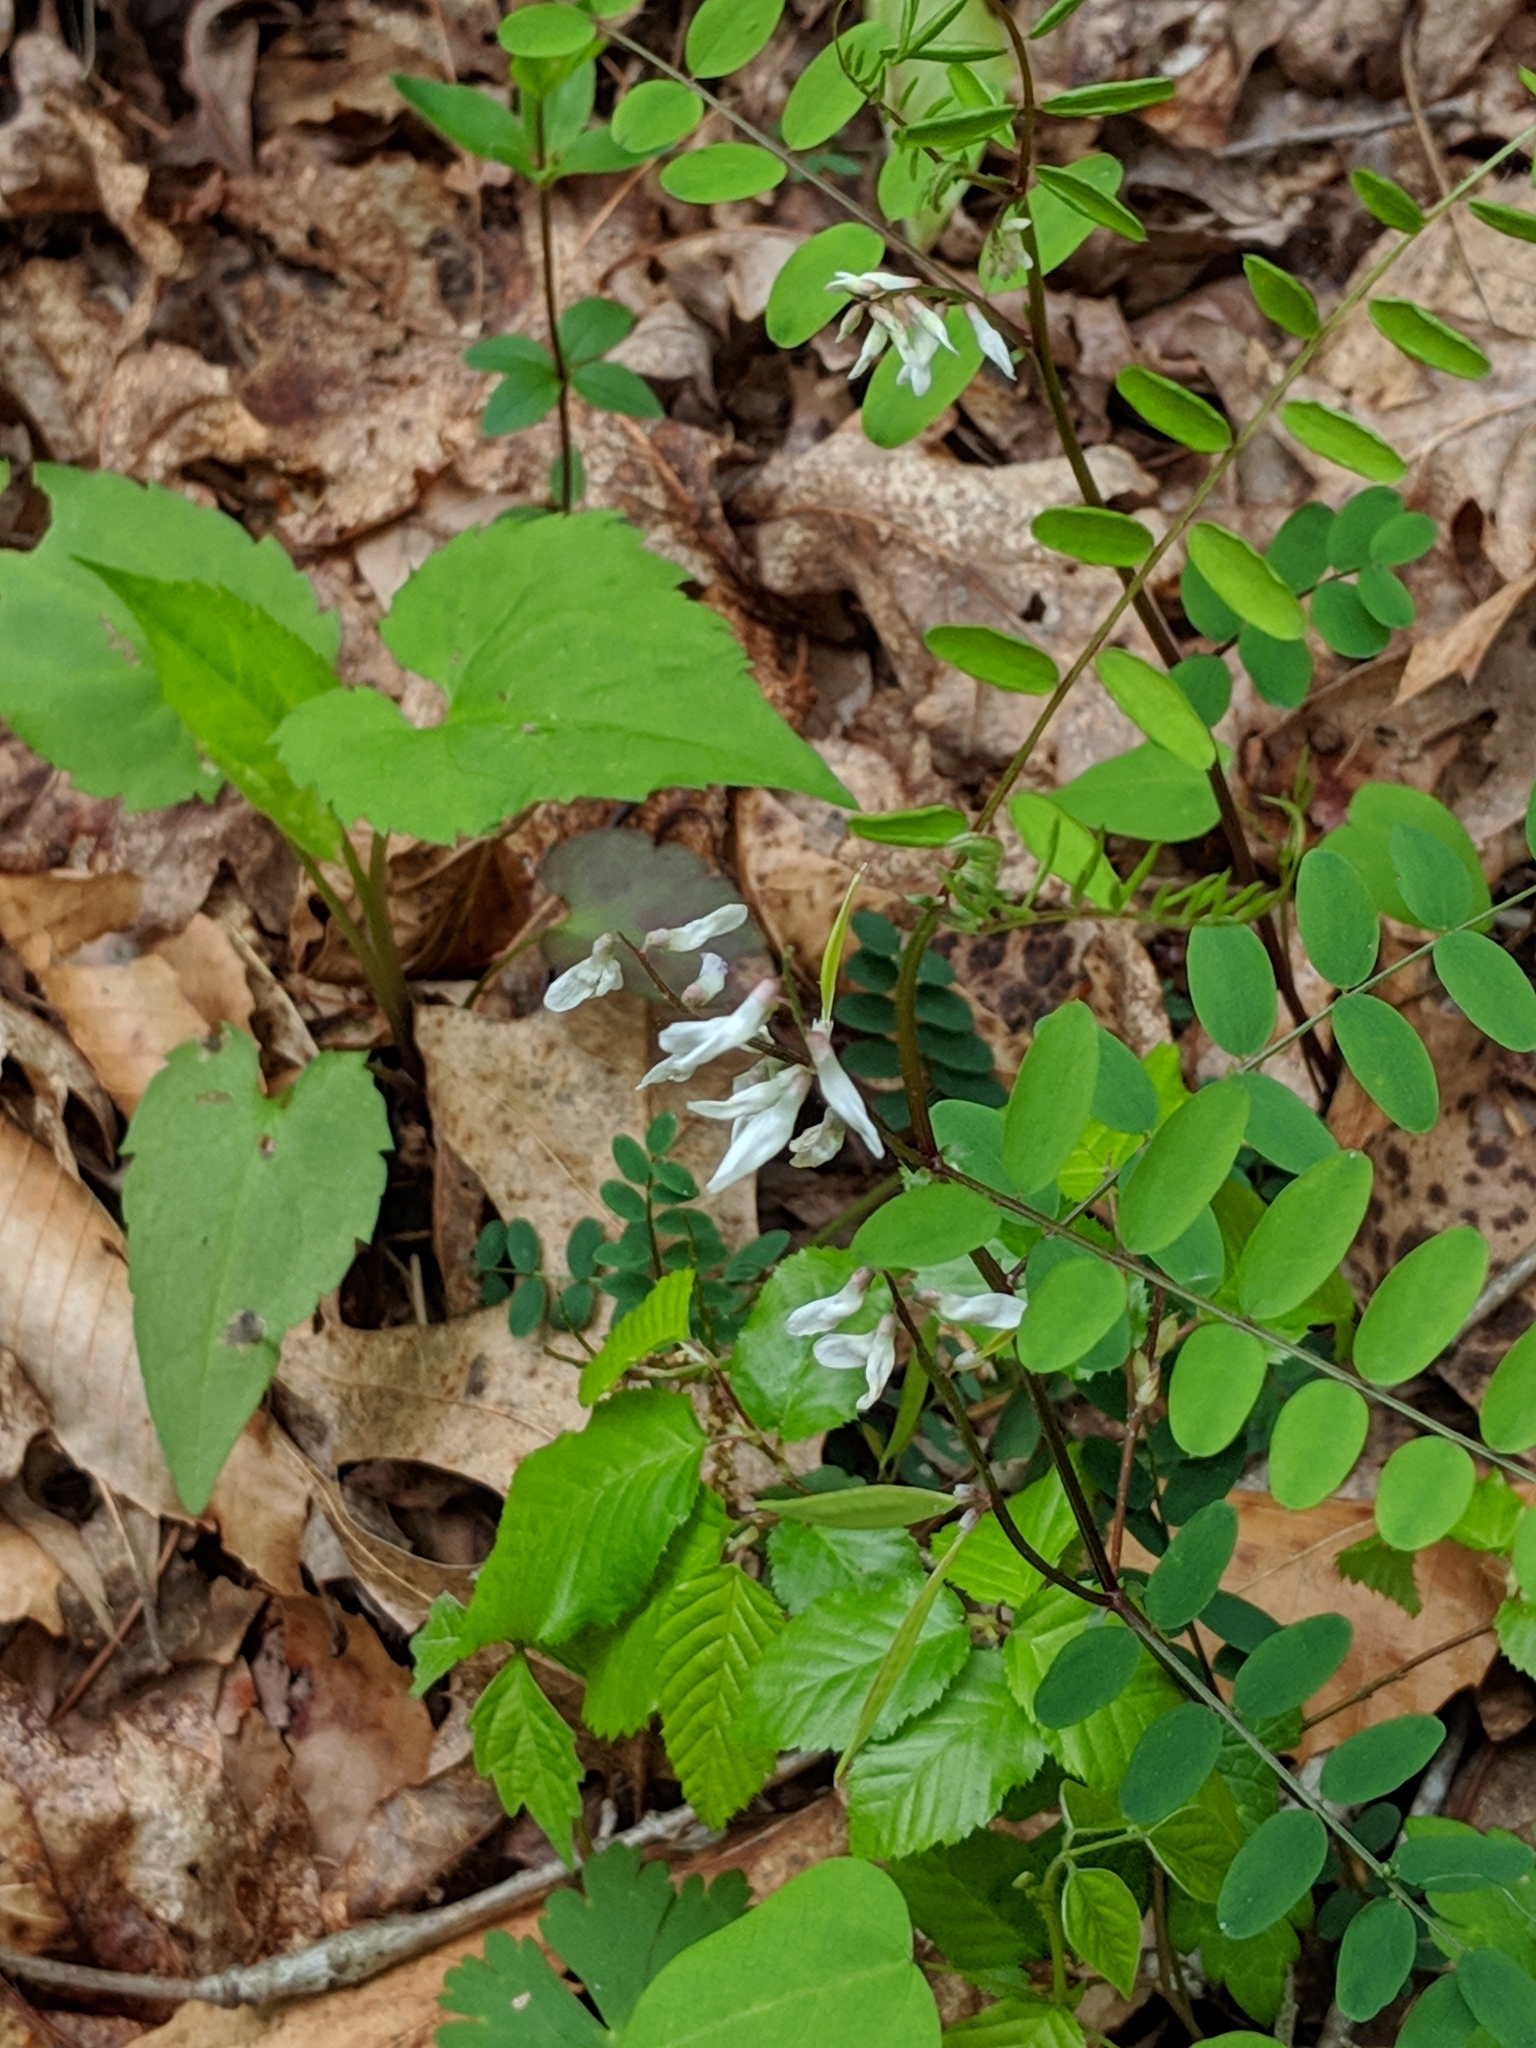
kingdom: Plantae
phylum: Tracheophyta
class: Magnoliopsida
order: Fabales
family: Fabaceae
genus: Vicia
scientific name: Vicia caroliniana
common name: Carolina vetch
